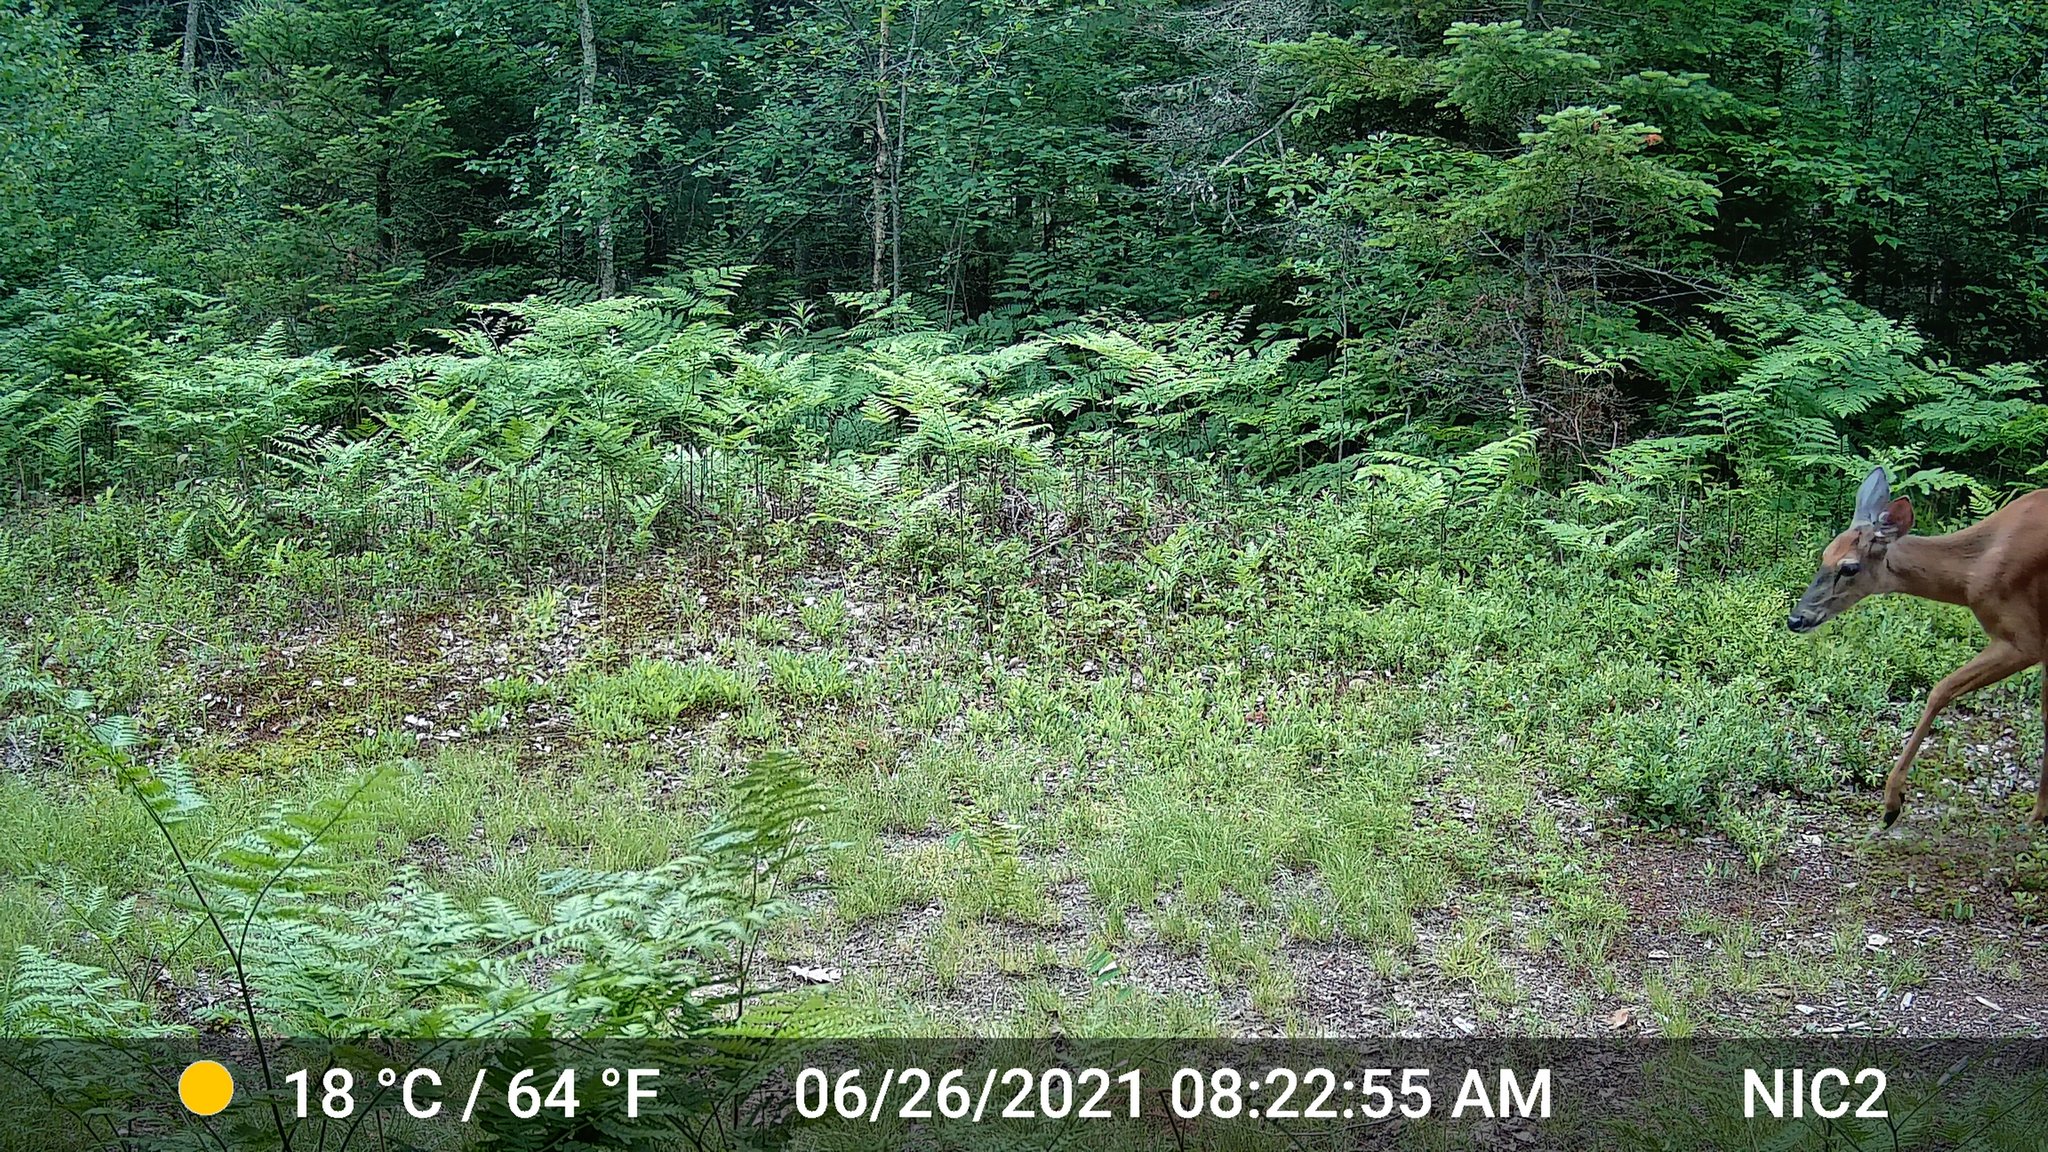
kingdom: Animalia
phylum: Chordata
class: Mammalia
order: Artiodactyla
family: Cervidae
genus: Odocoileus
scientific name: Odocoileus virginianus
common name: White-tailed deer
